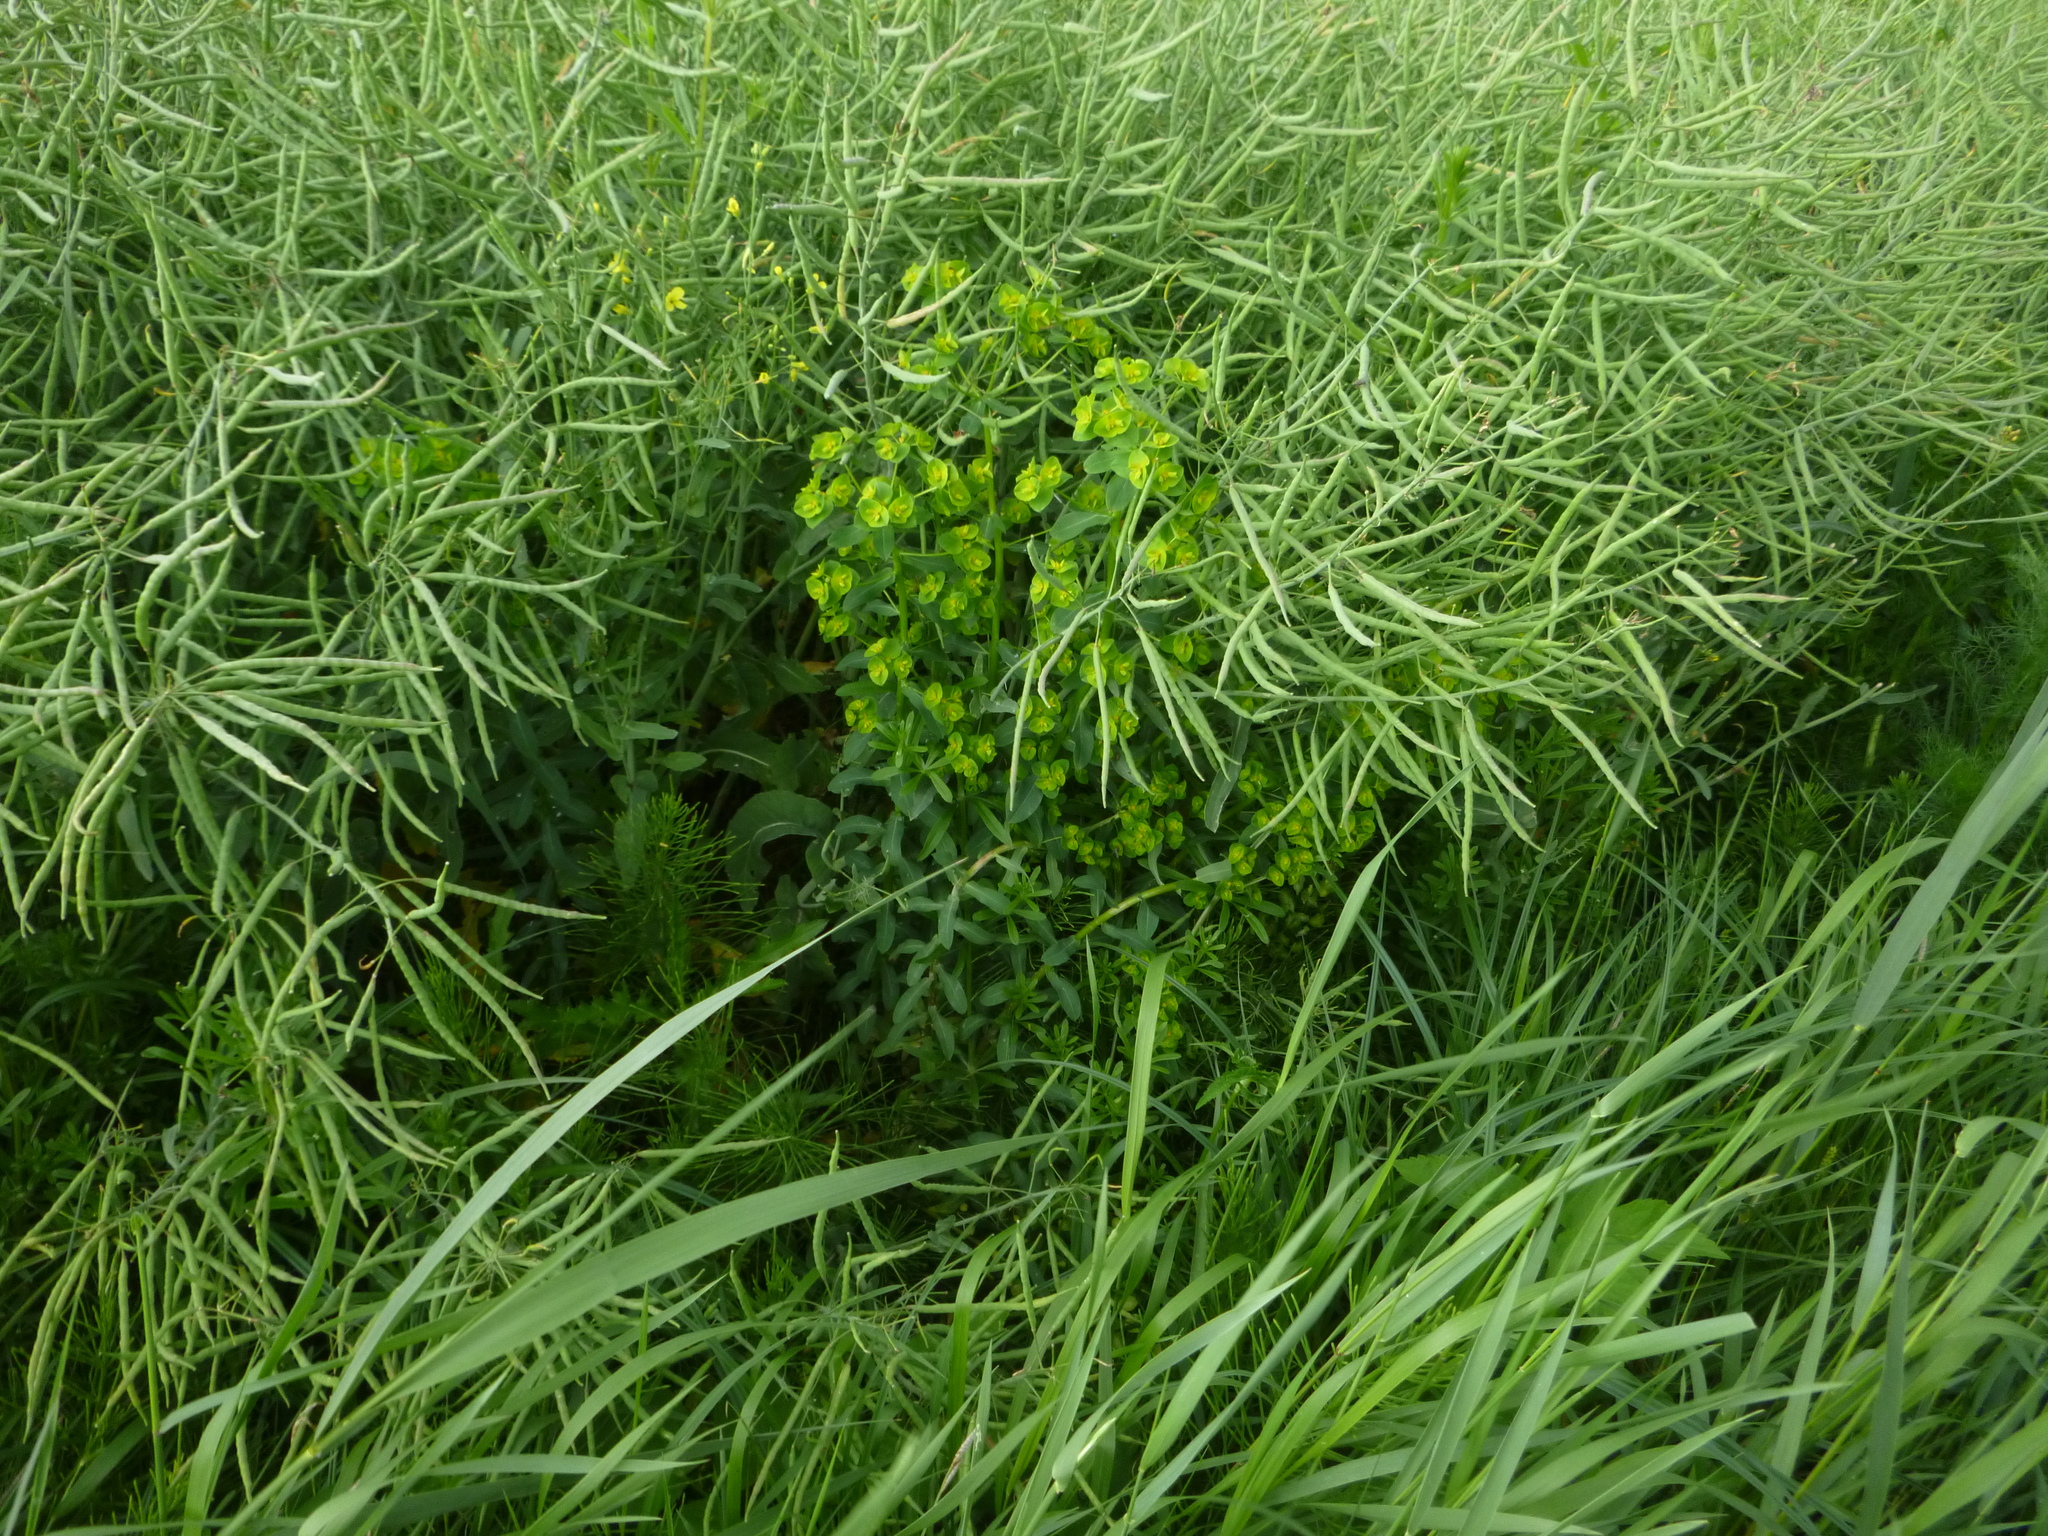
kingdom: Plantae
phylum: Tracheophyta
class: Magnoliopsida
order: Malpighiales
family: Euphorbiaceae
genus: Euphorbia
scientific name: Euphorbia platyphyllos
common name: Broad-leaved spurge
